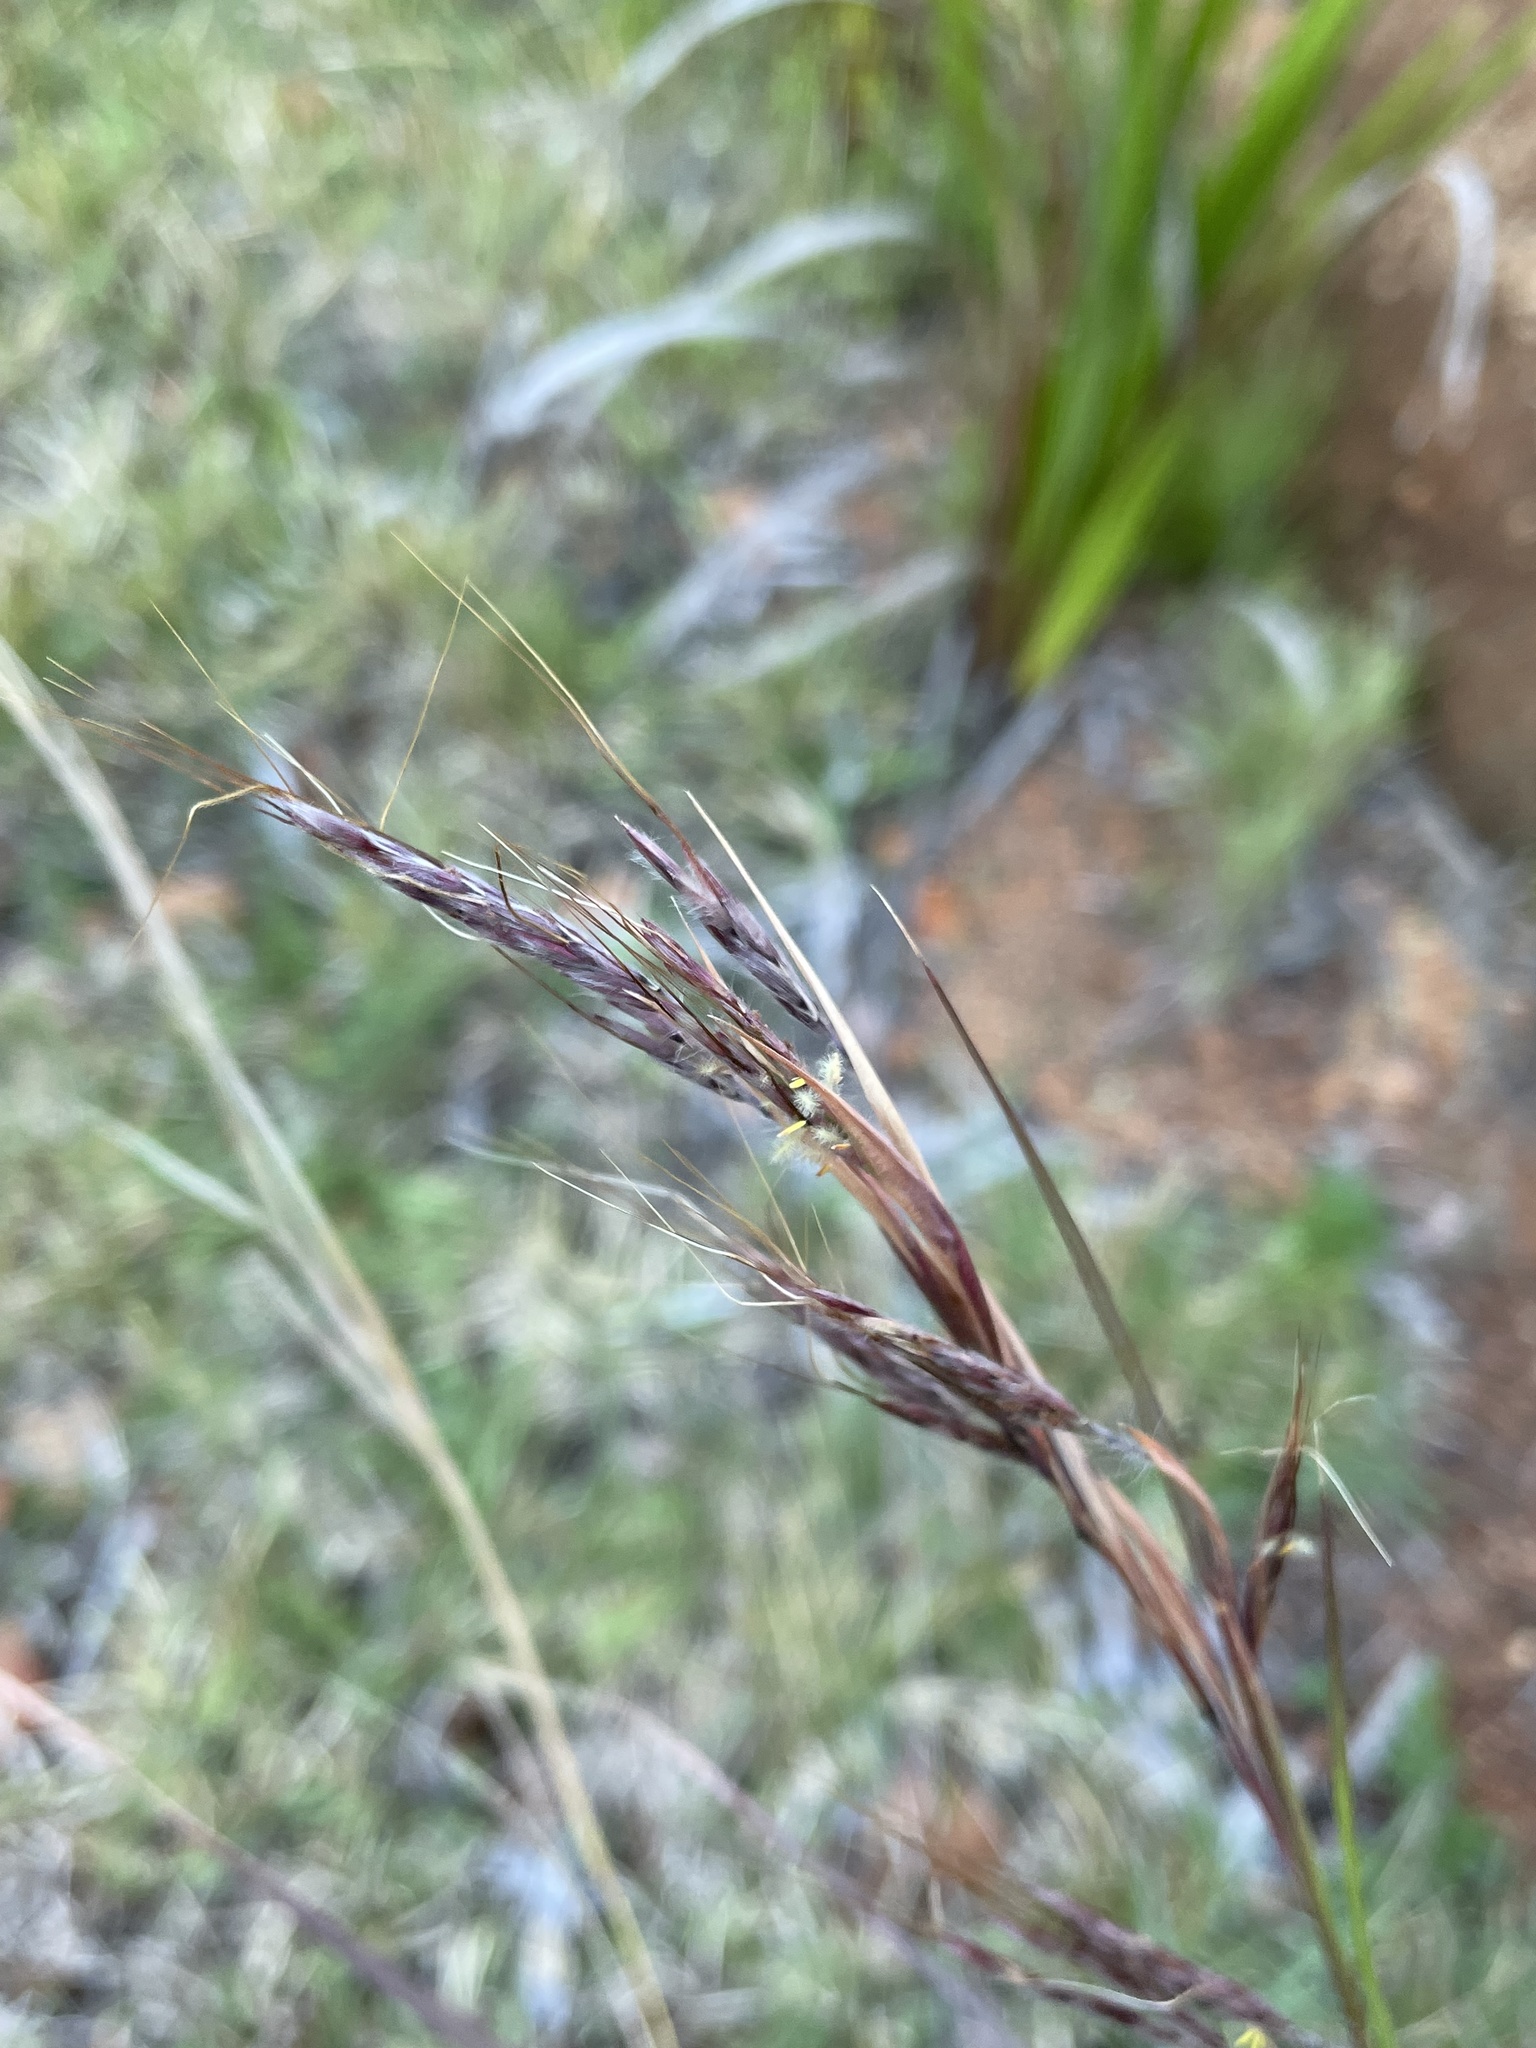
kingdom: Plantae
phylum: Tracheophyta
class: Liliopsida
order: Poales
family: Poaceae
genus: Hyparrhenia
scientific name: Hyparrhenia hirta
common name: Thatching grass
